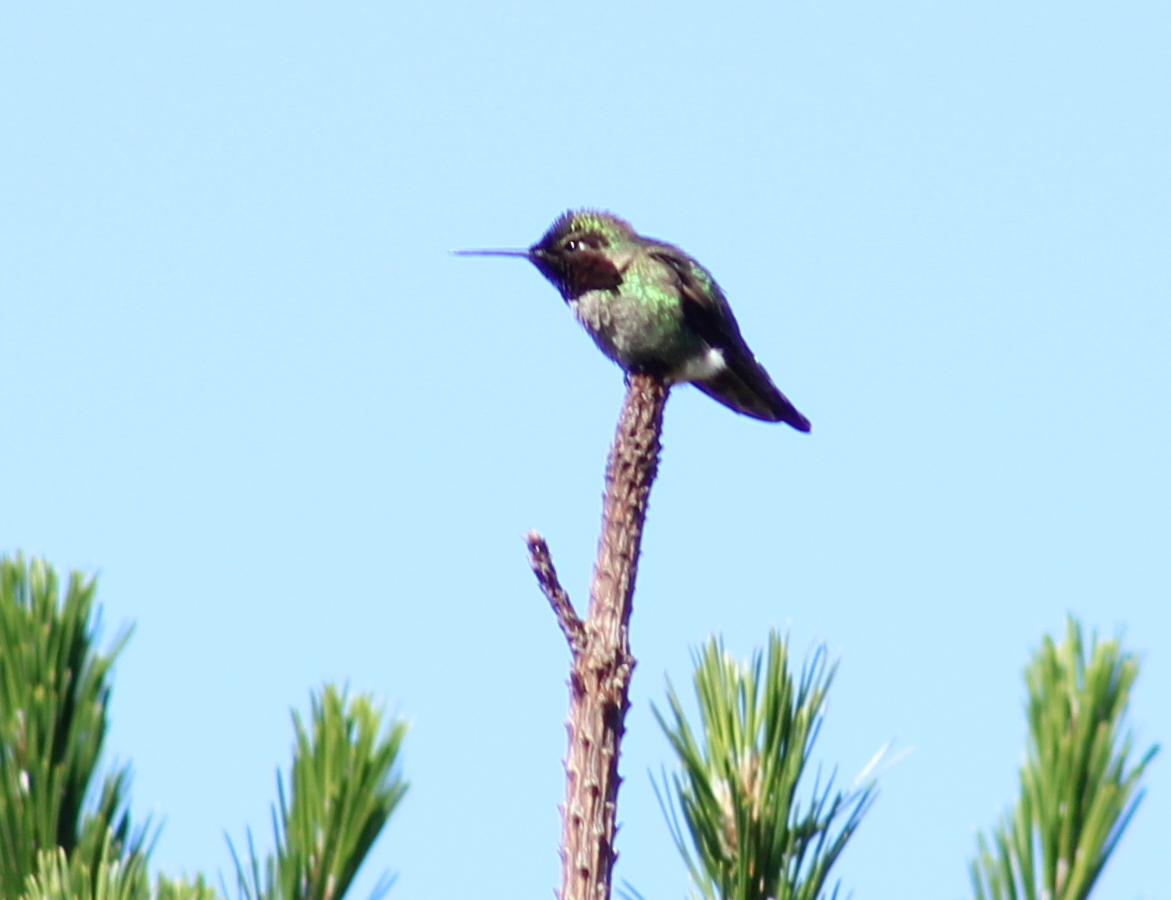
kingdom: Animalia
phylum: Chordata
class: Aves
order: Apodiformes
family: Trochilidae
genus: Calypte
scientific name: Calypte anna
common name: Anna's hummingbird
